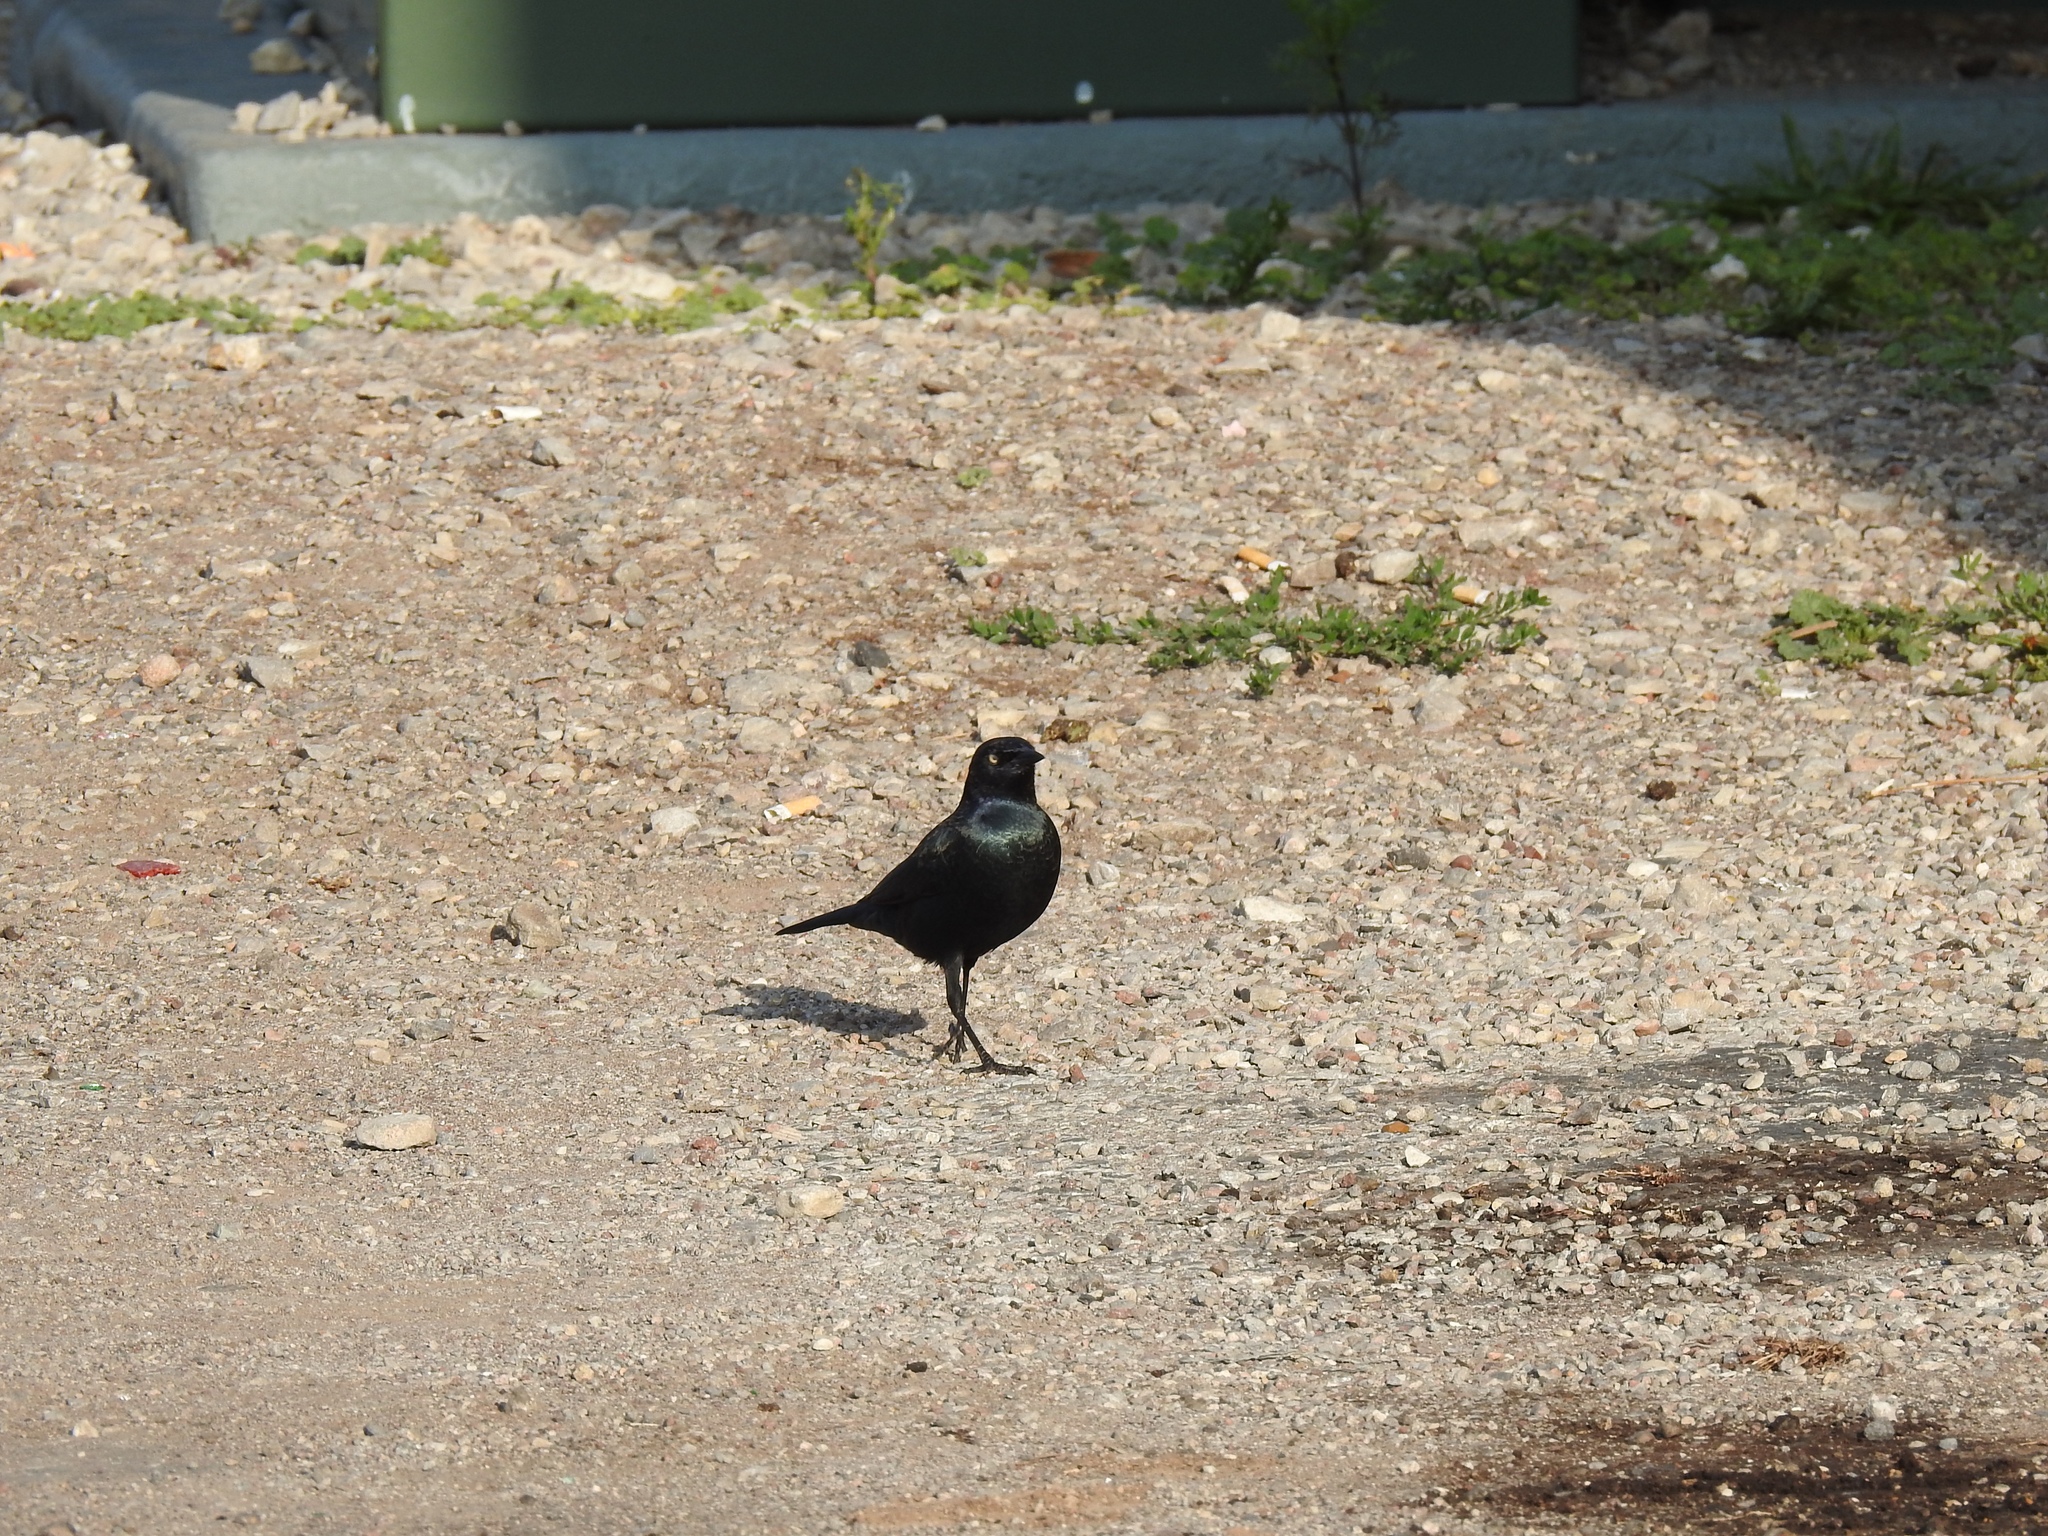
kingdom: Animalia
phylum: Chordata
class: Aves
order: Passeriformes
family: Icteridae
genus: Euphagus
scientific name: Euphagus cyanocephalus
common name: Brewer's blackbird
